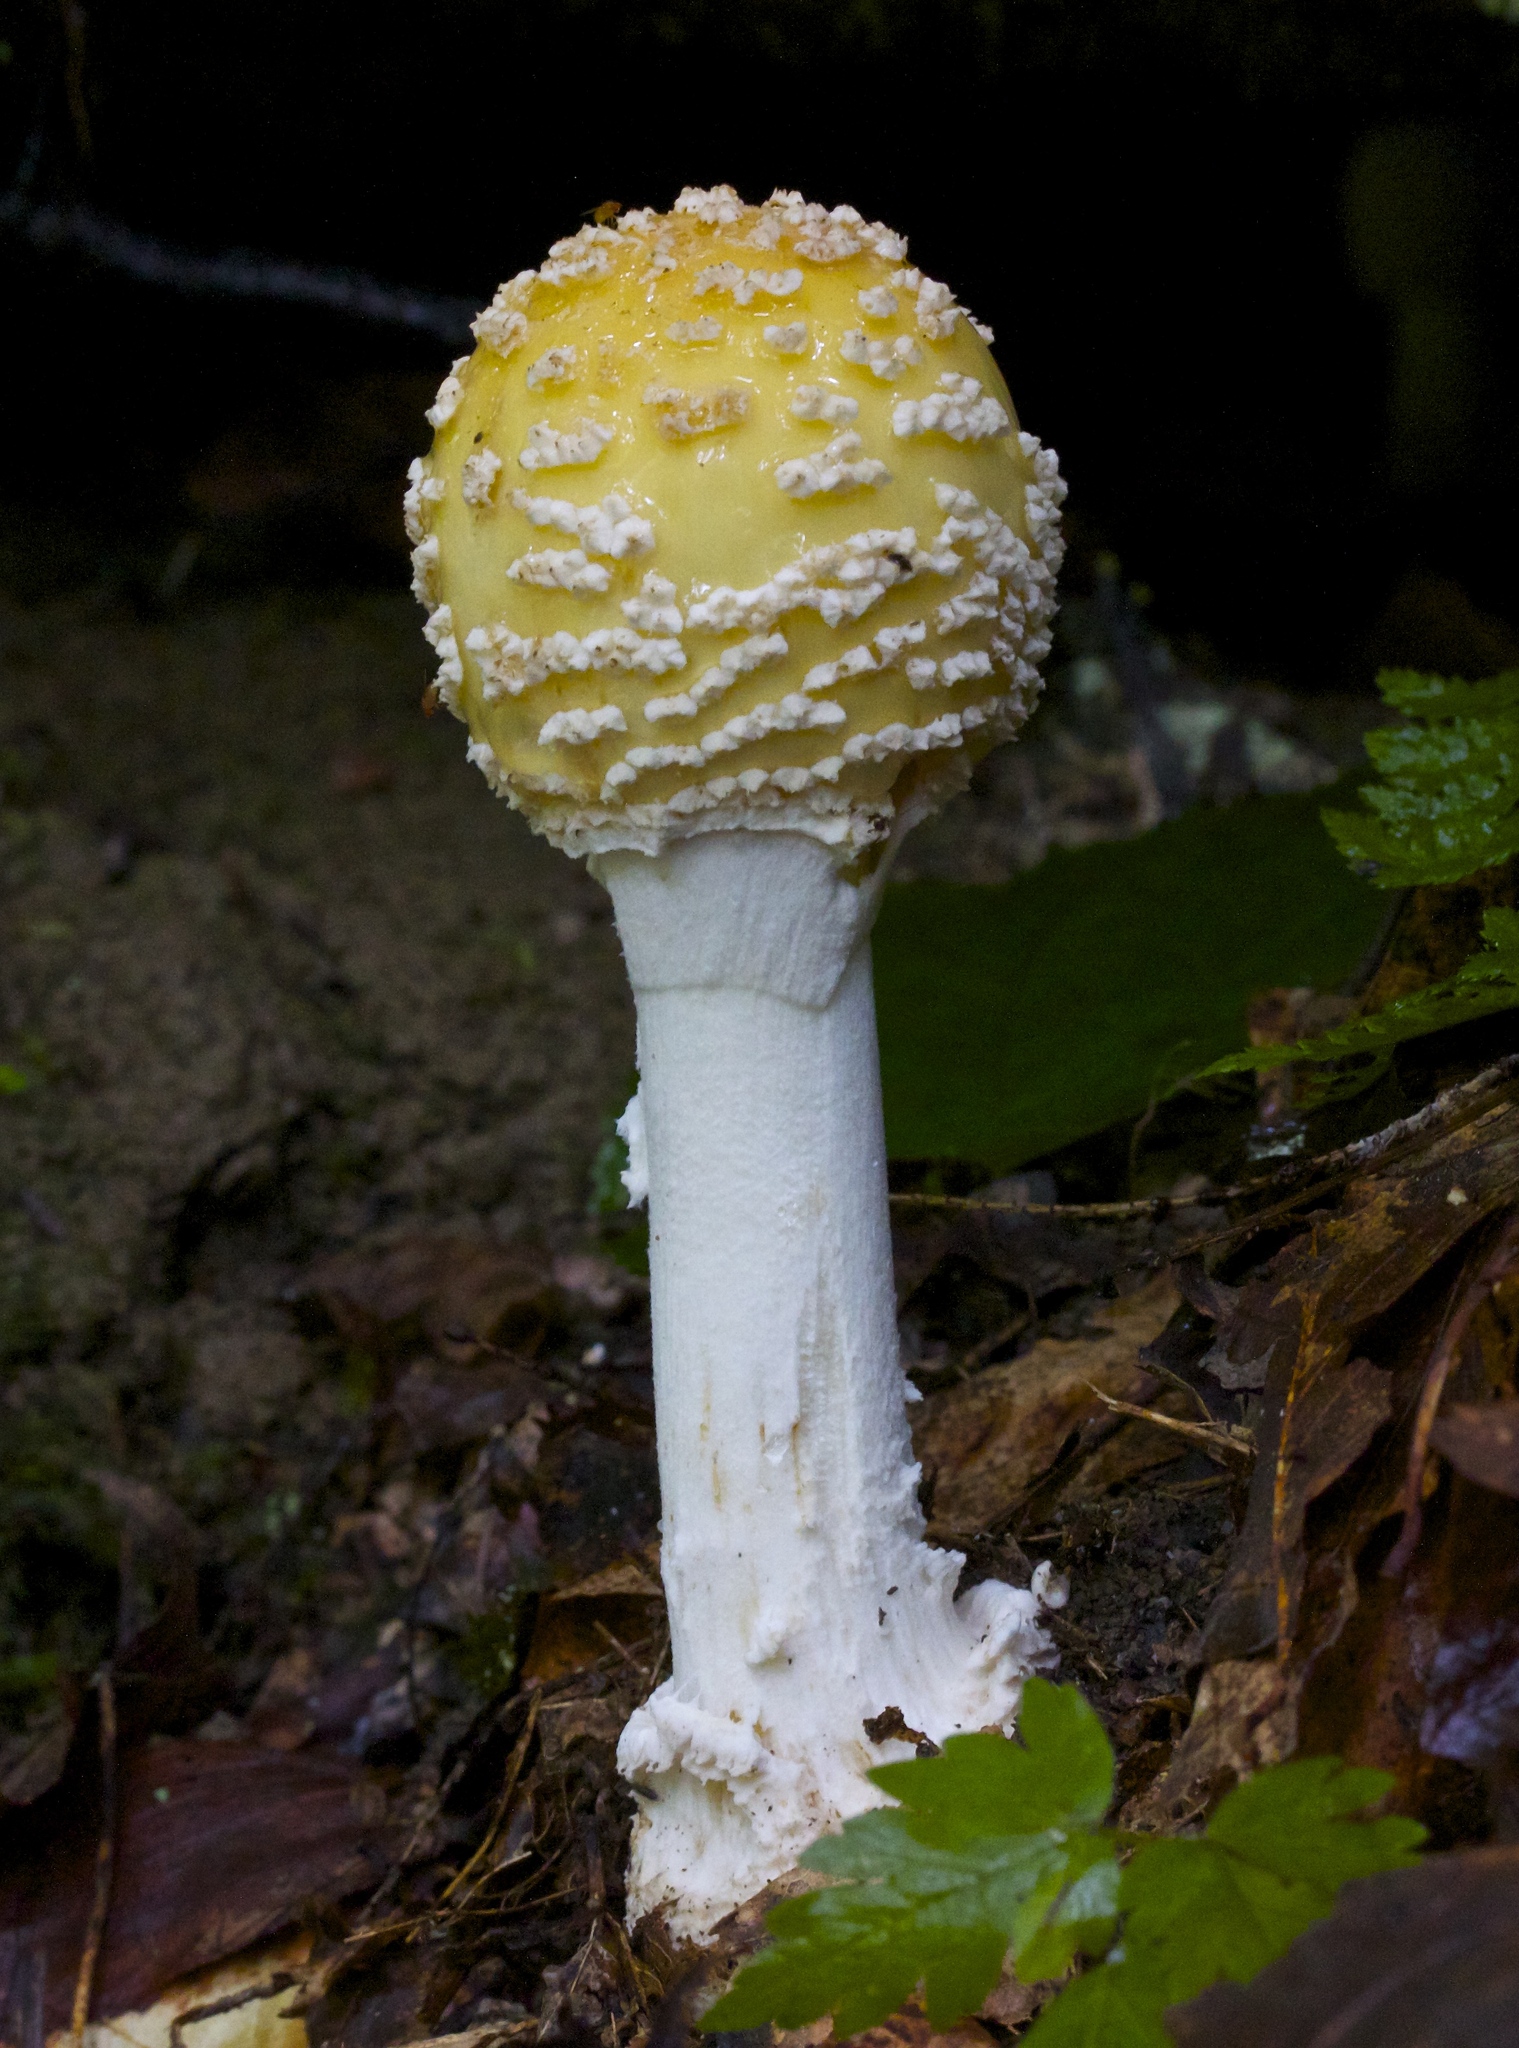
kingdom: Fungi
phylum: Basidiomycota
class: Agaricomycetes
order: Agaricales
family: Amanitaceae
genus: Amanita
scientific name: Amanita muscaria
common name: Fly agaric
